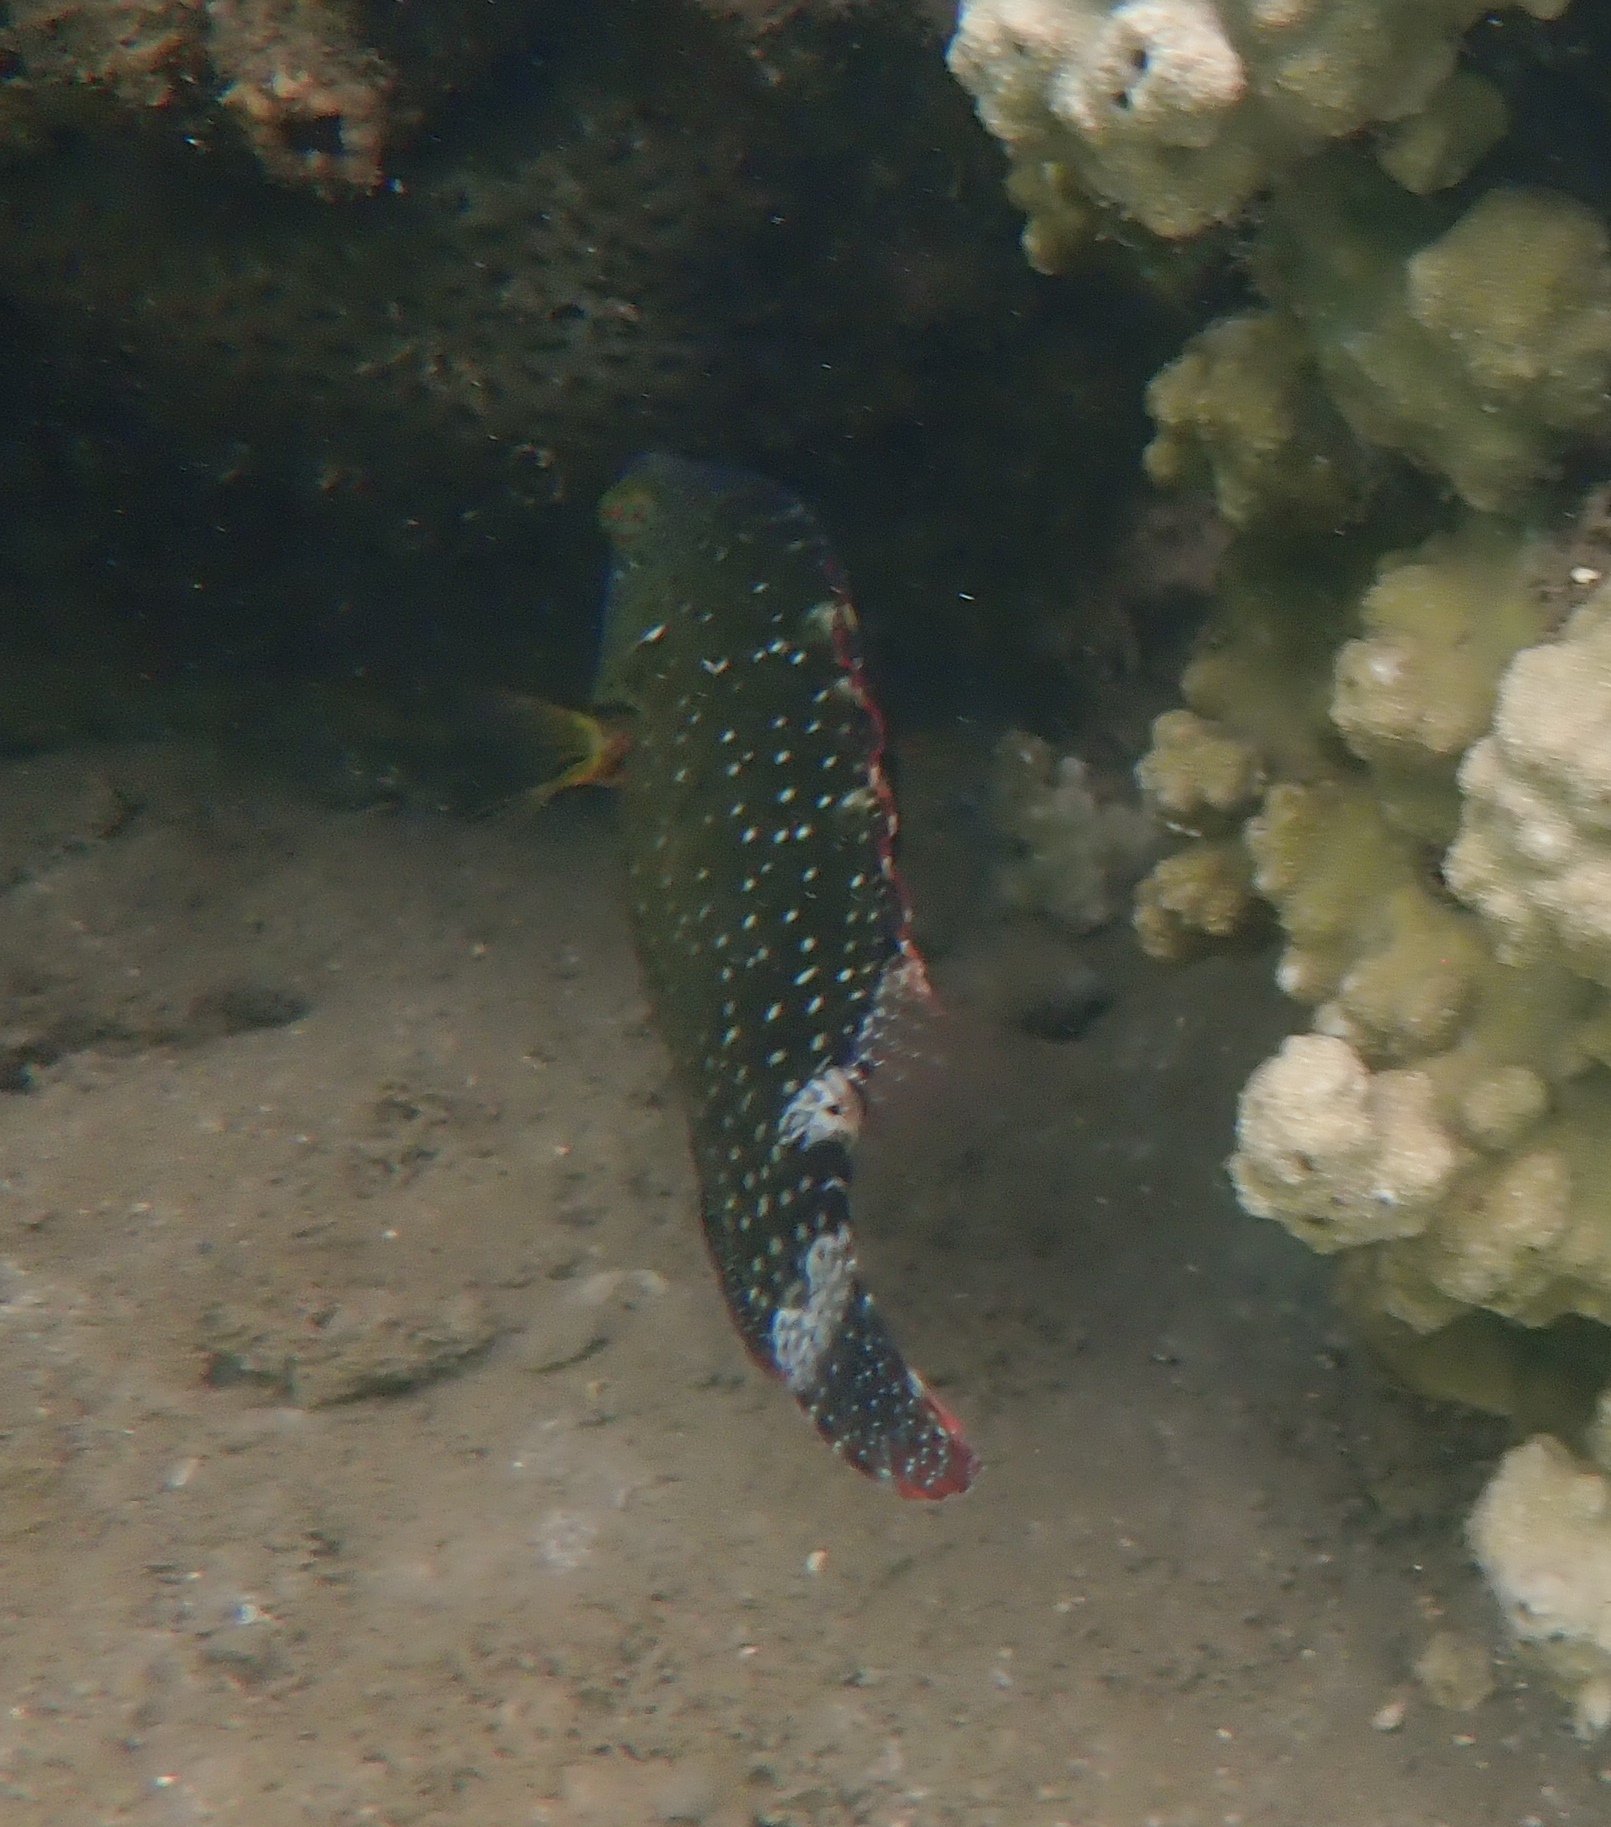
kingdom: Animalia
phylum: Chordata
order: Perciformes
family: Labridae
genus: Cheilinus
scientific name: Cheilinus chlorourus
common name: Floral wrasse
